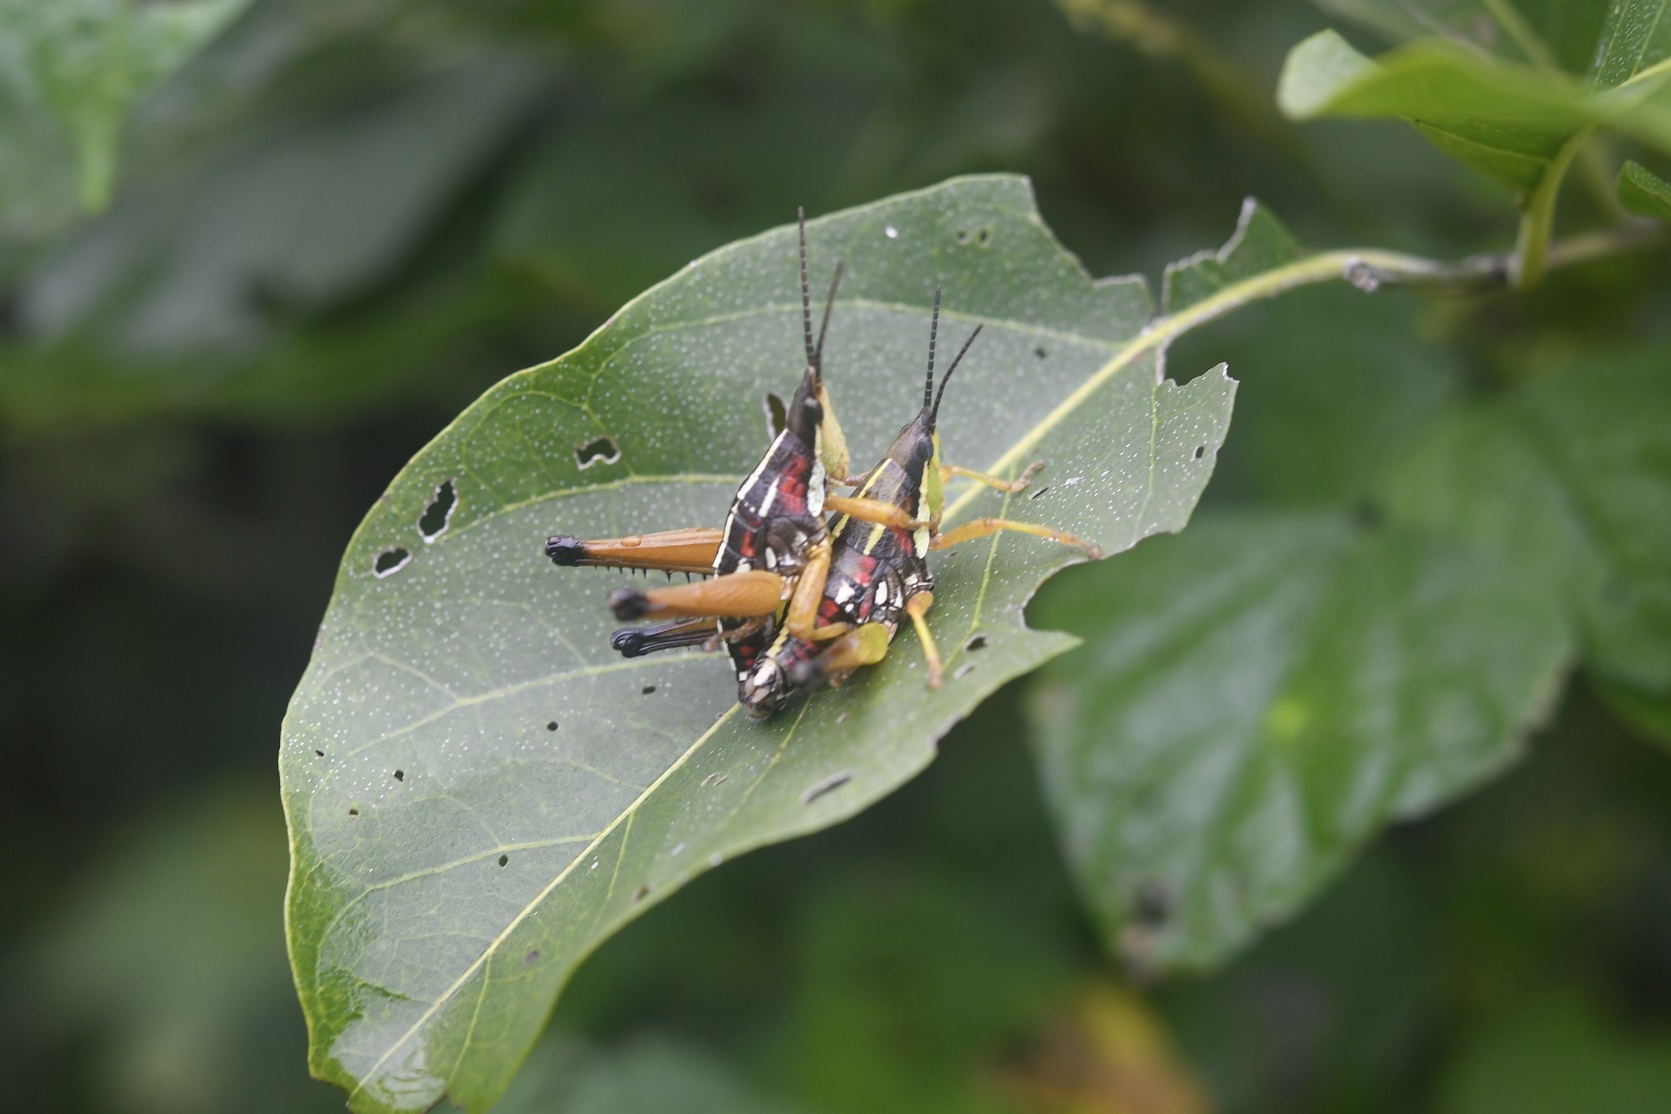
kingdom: Animalia
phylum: Arthropoda
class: Insecta
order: Orthoptera
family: Pyrgomorphidae
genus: Sphenarium
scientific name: Sphenarium histrio
